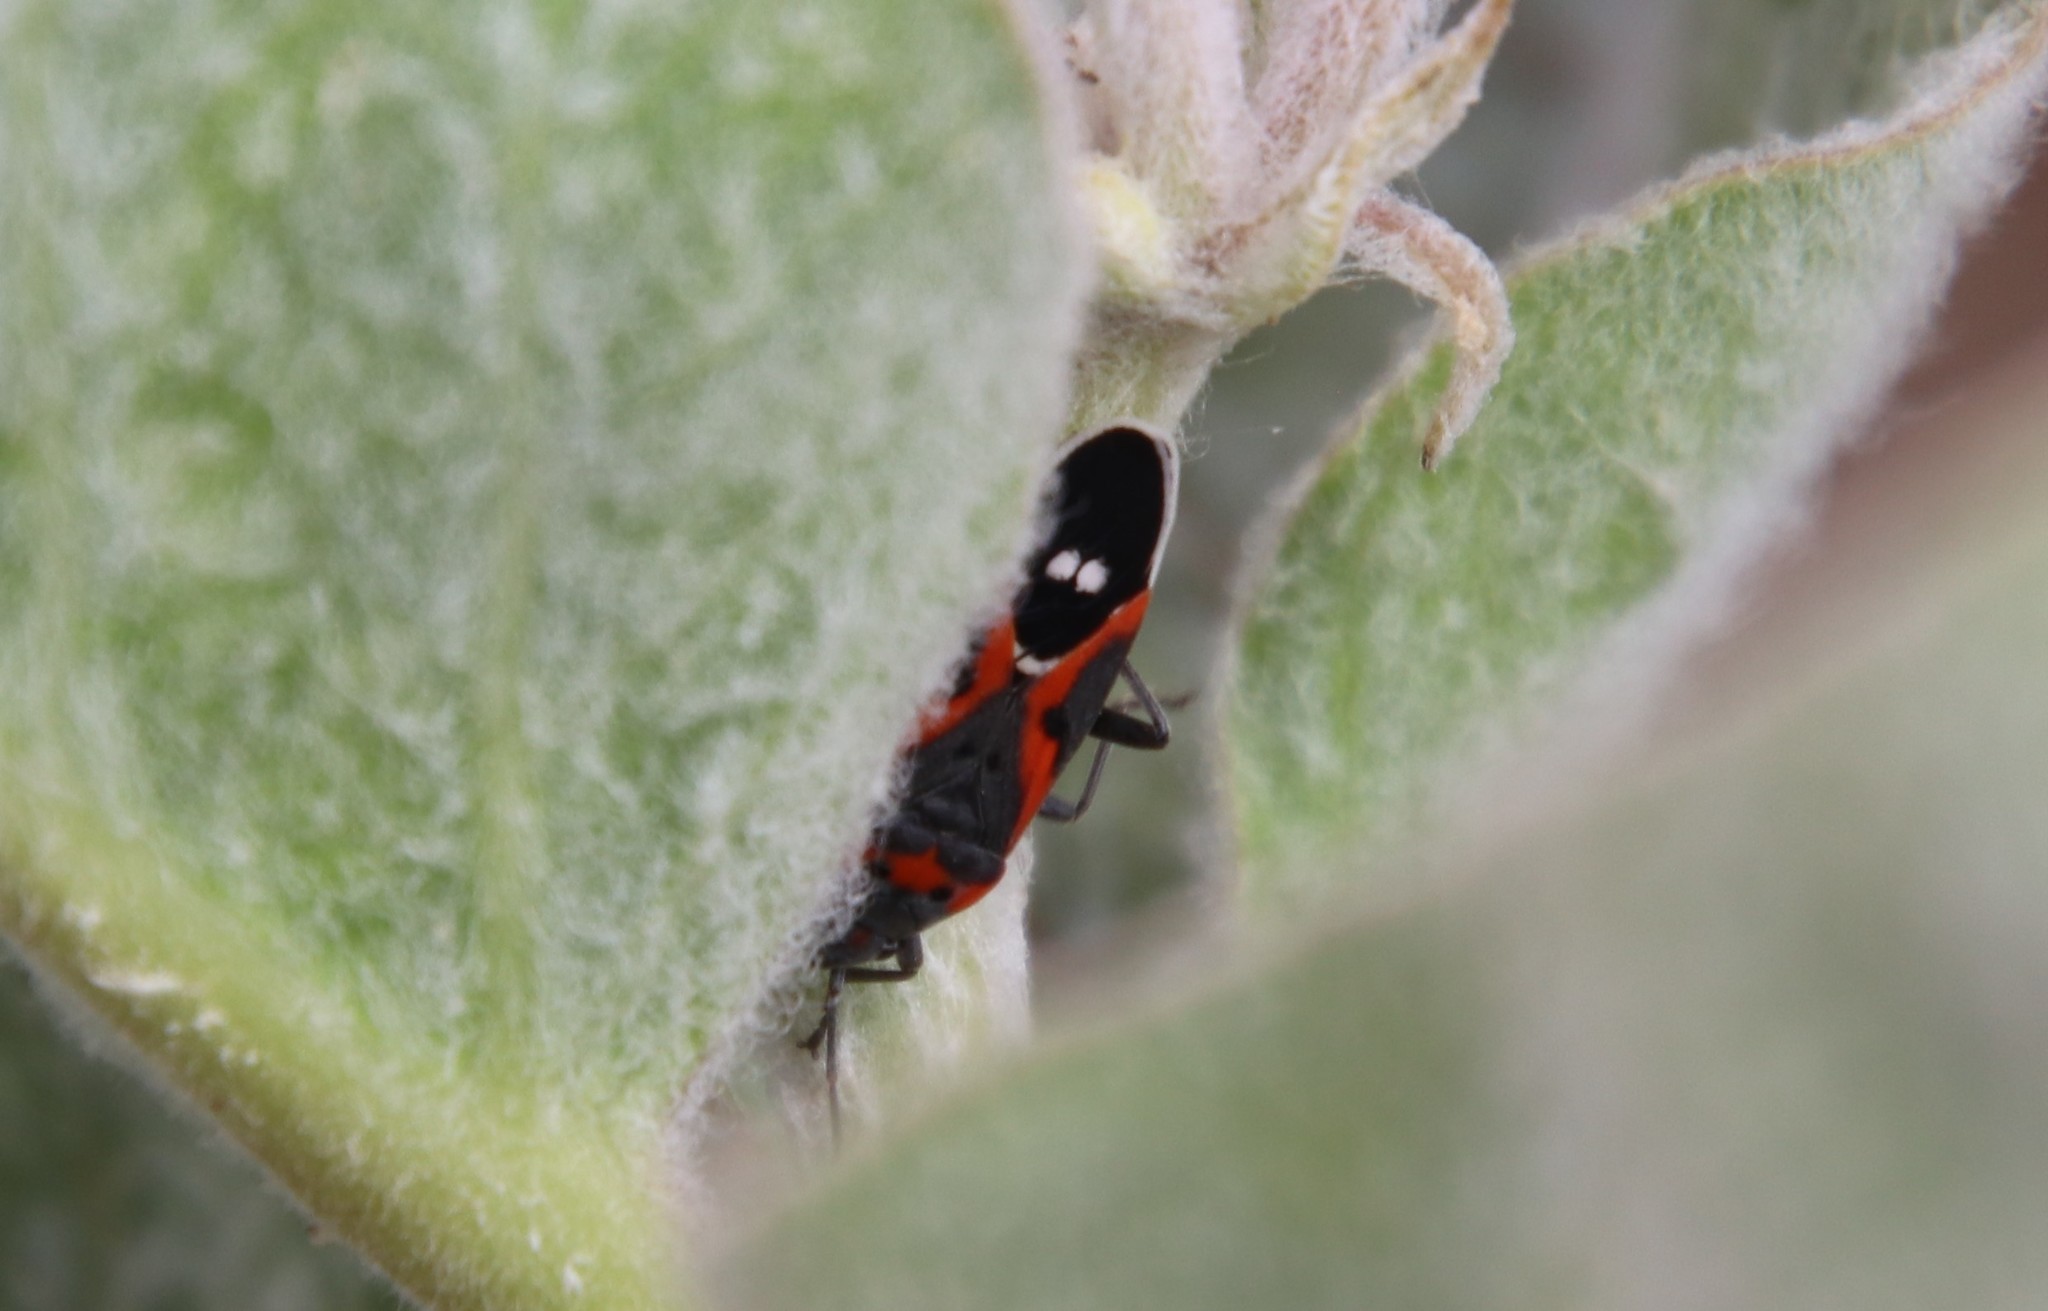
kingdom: Animalia
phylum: Arthropoda
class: Insecta
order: Hemiptera
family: Lygaeidae
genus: Lygaeus
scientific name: Lygaeus kalmii
